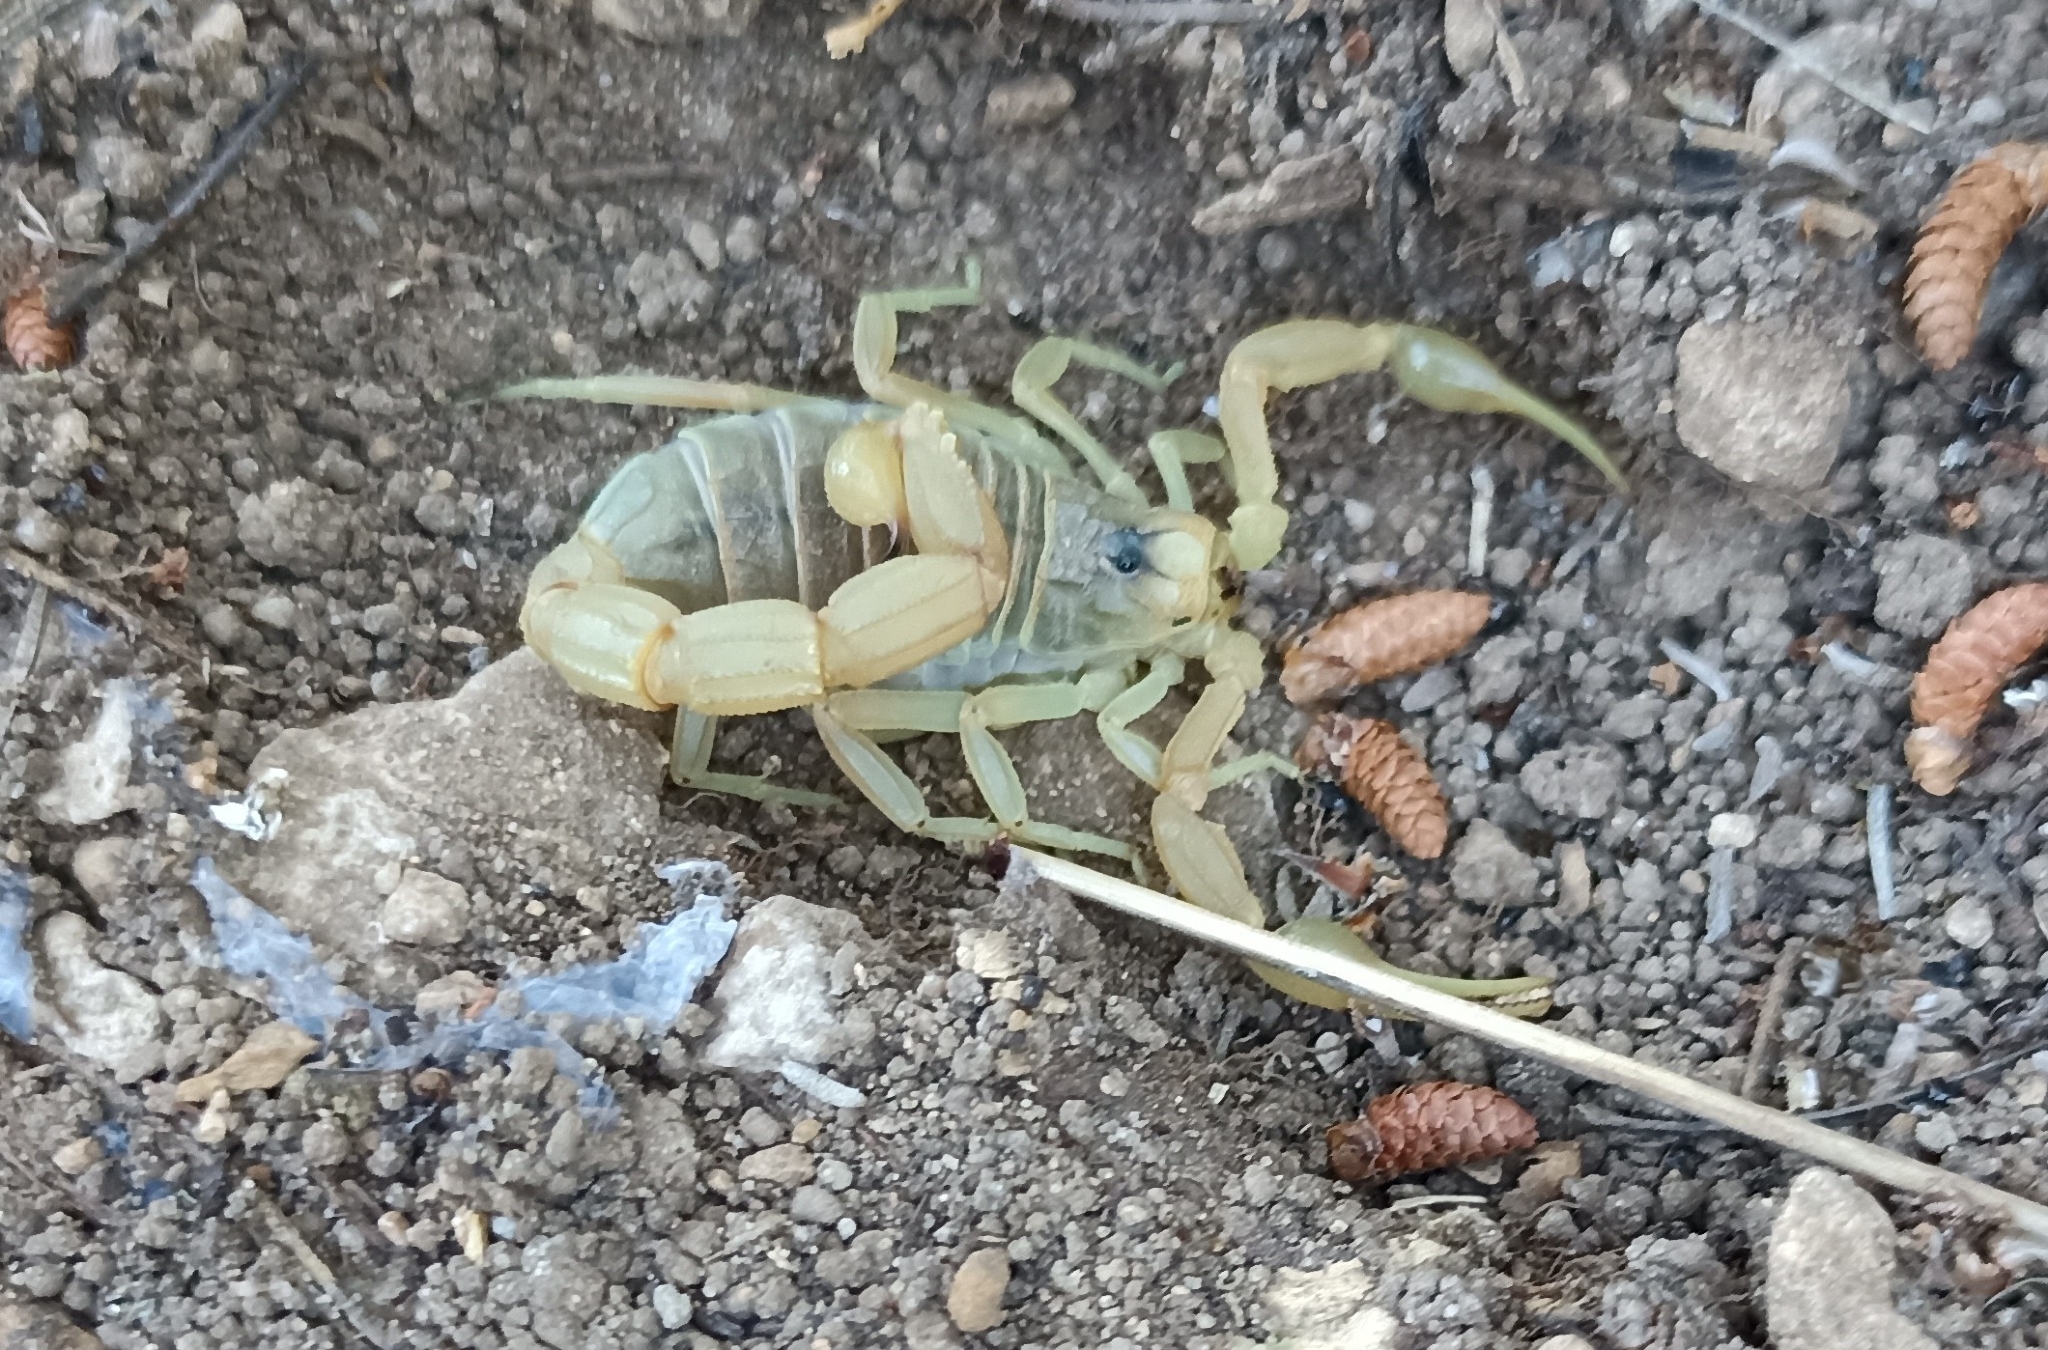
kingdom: Animalia
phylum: Arthropoda
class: Arachnida
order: Scorpiones
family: Buthidae
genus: Buthus
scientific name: Buthus occitanus
